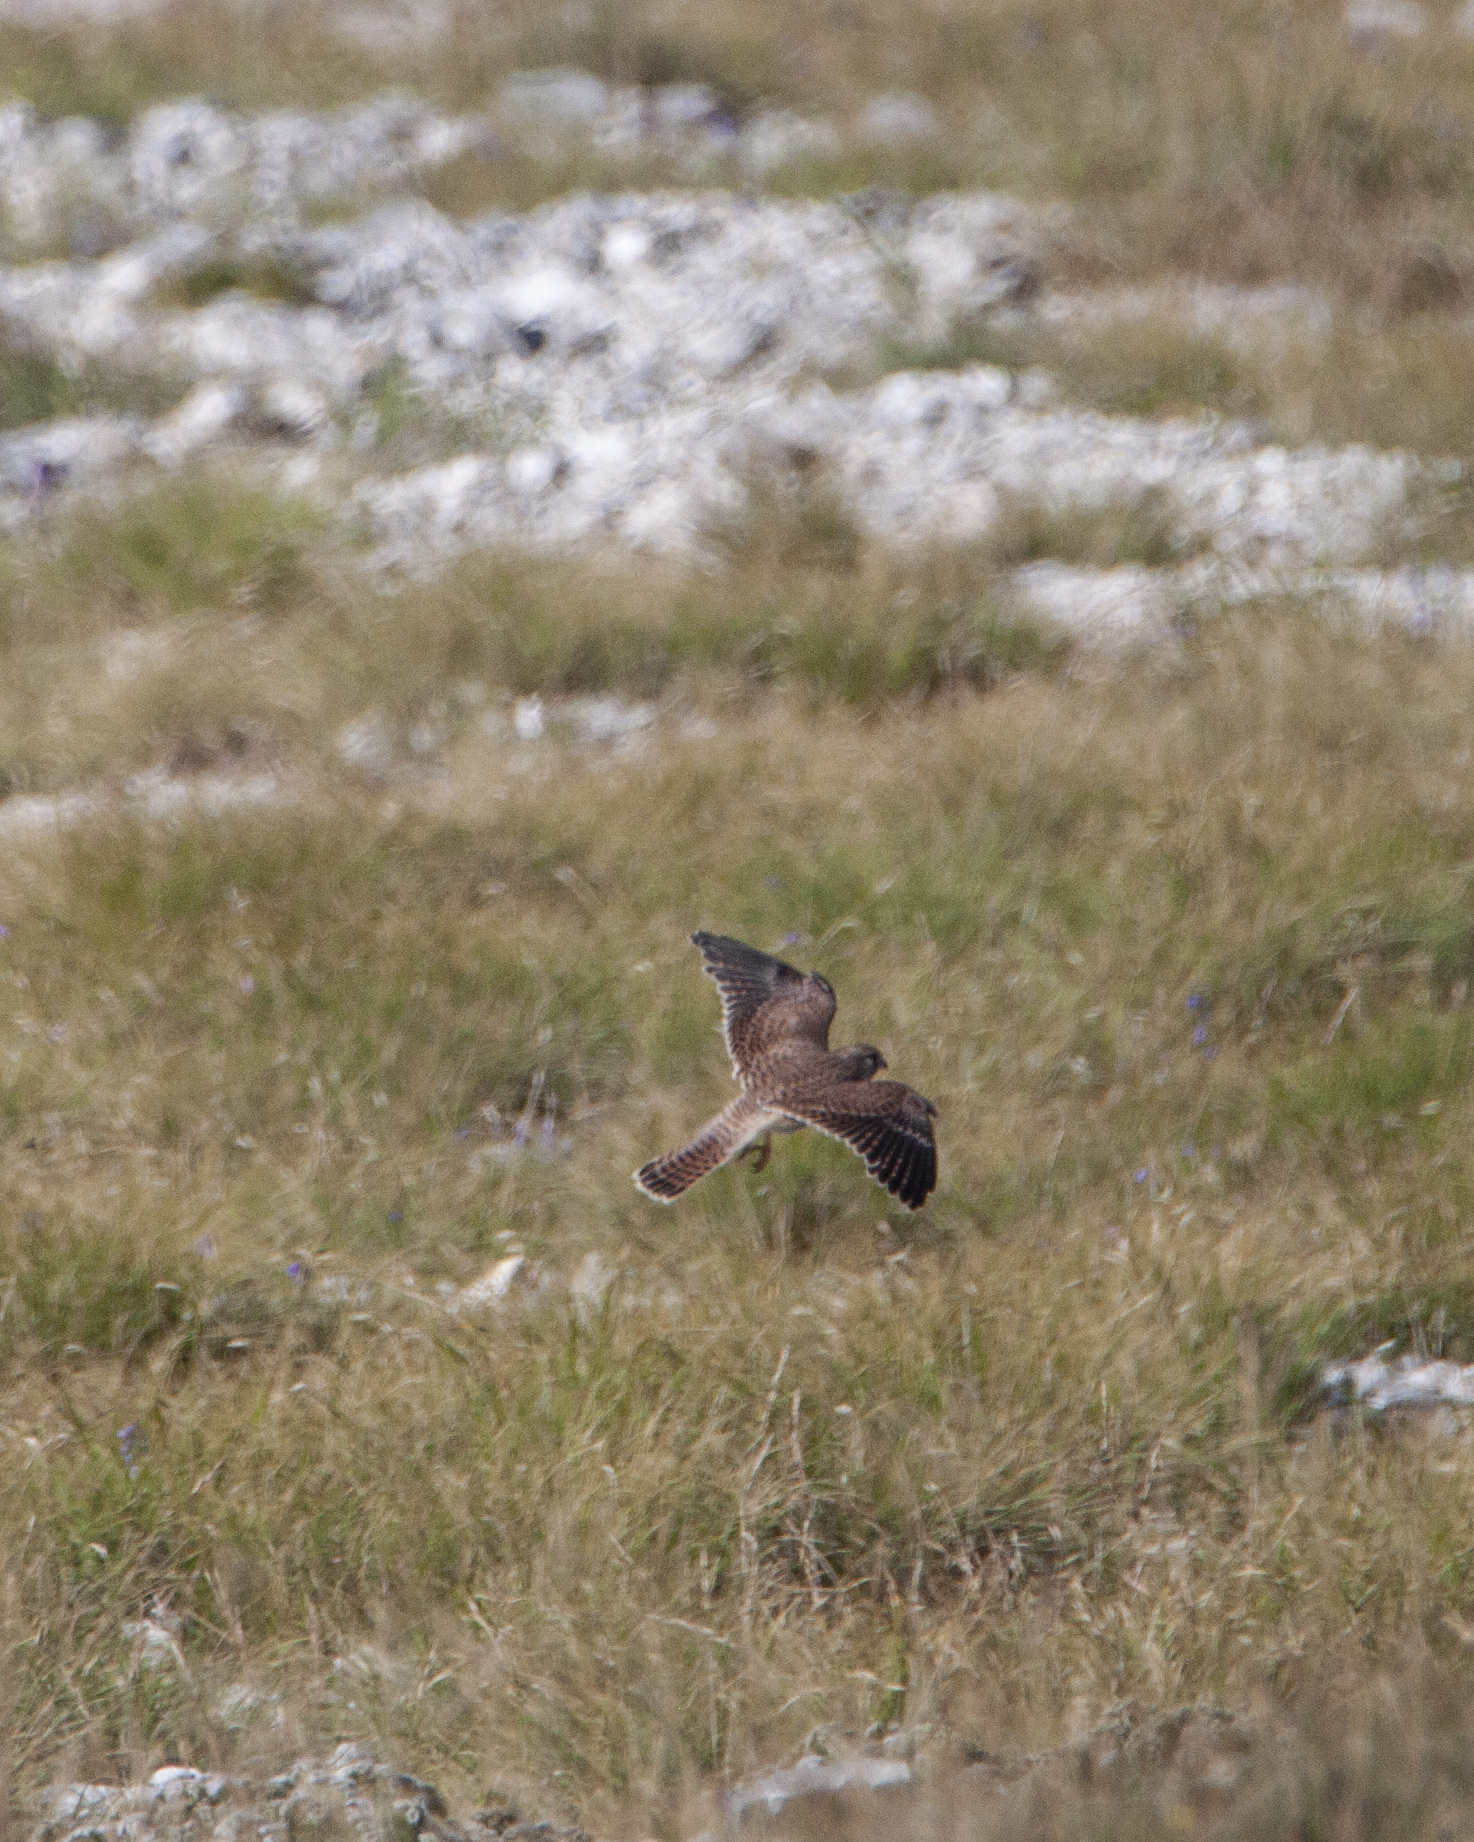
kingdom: Animalia
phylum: Chordata
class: Aves
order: Falconiformes
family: Falconidae
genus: Falco
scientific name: Falco tinnunculus
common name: Common kestrel
